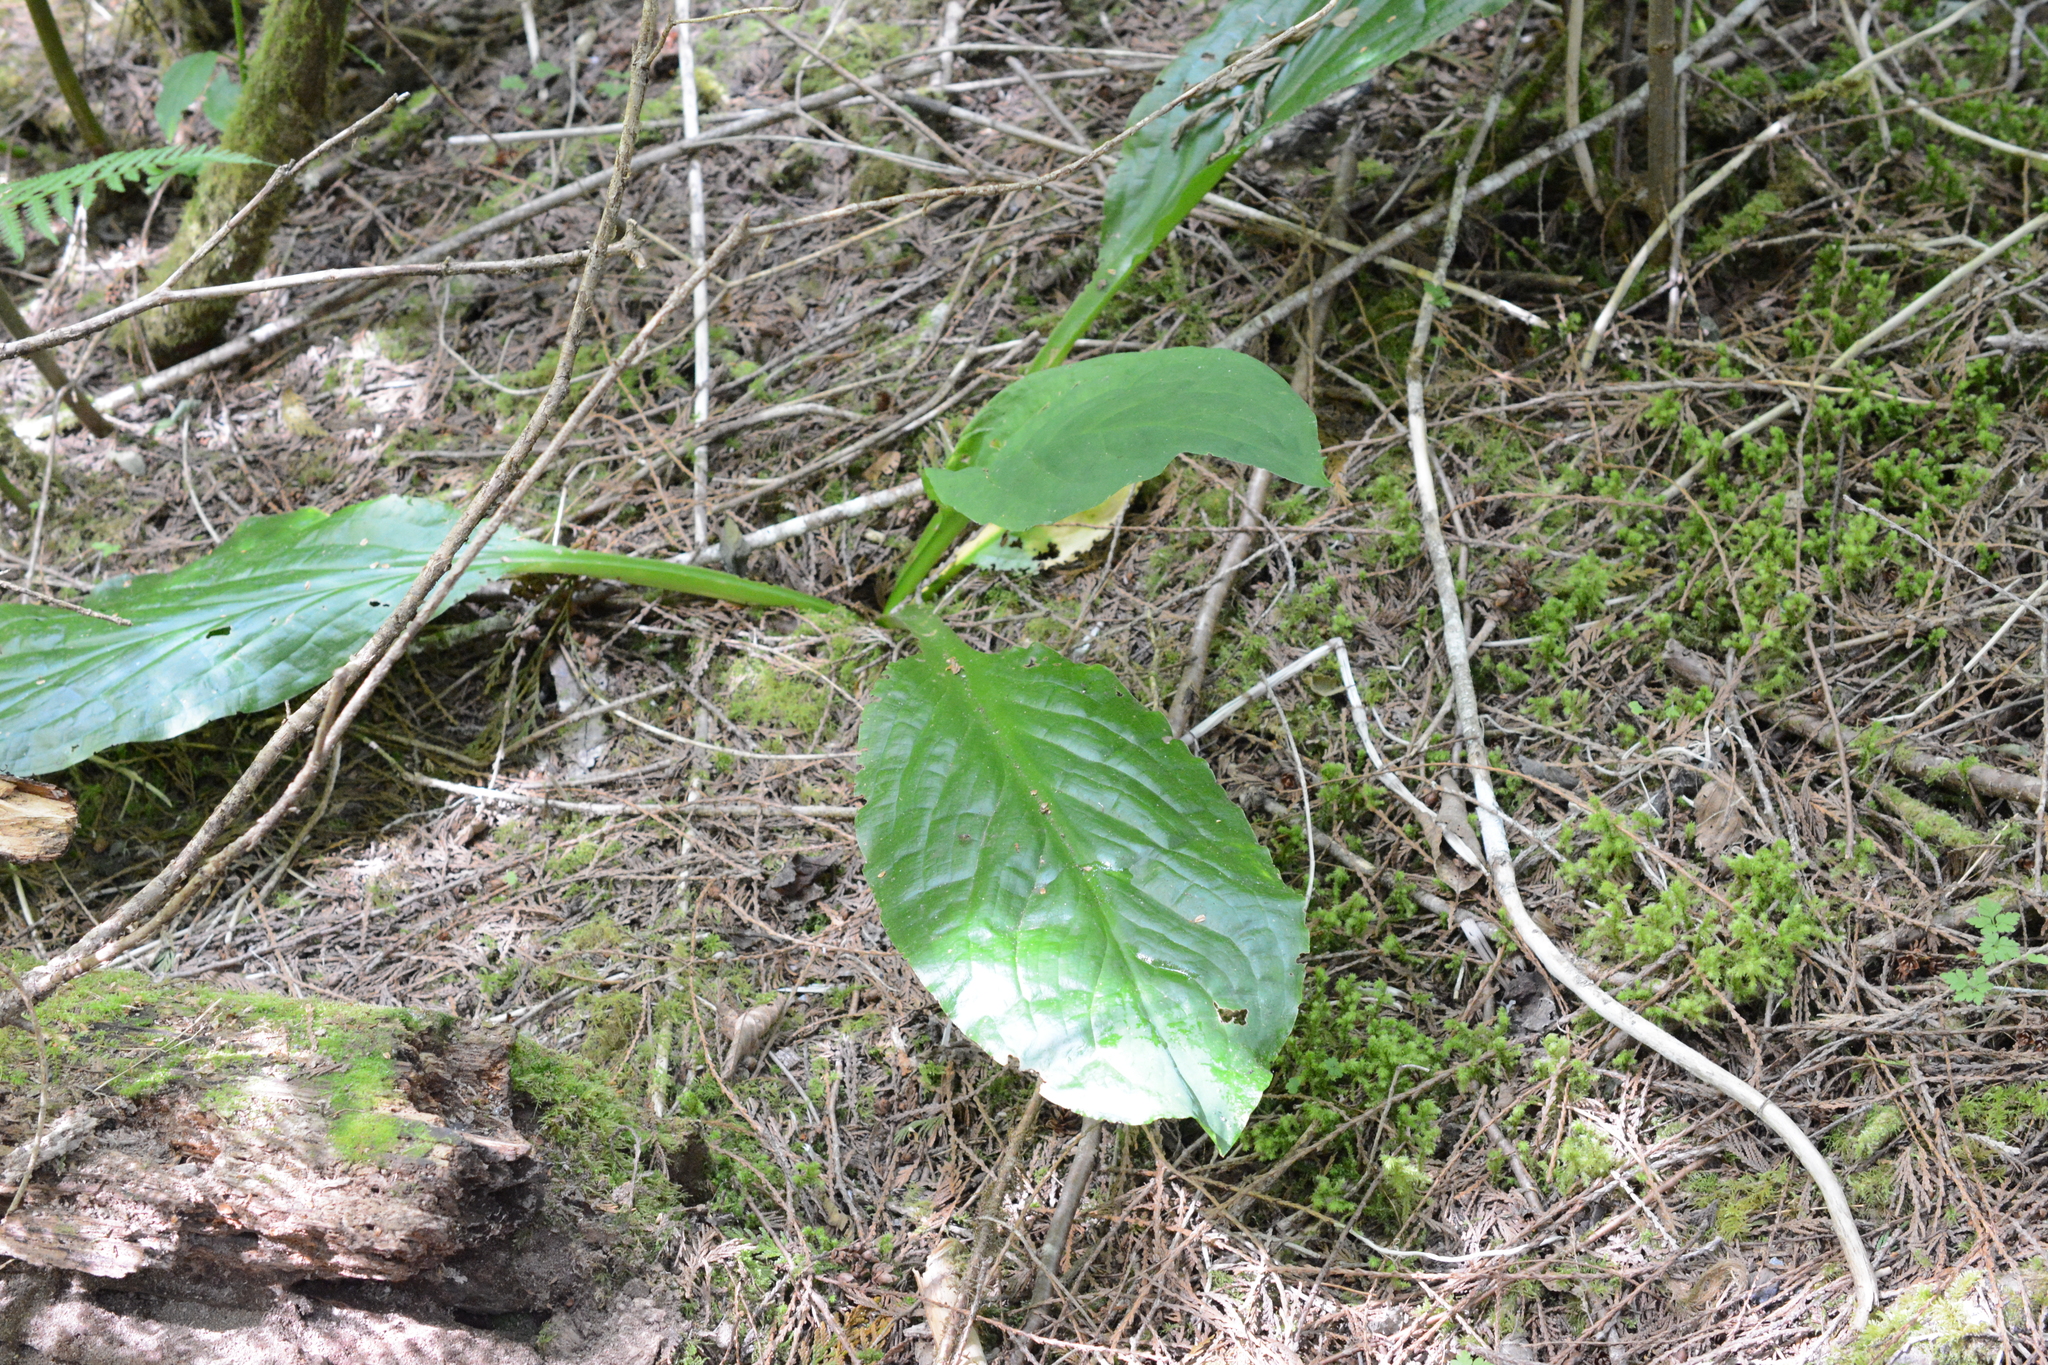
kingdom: Plantae
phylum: Tracheophyta
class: Liliopsida
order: Alismatales
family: Araceae
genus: Lysichiton
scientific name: Lysichiton americanus
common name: American skunk cabbage
